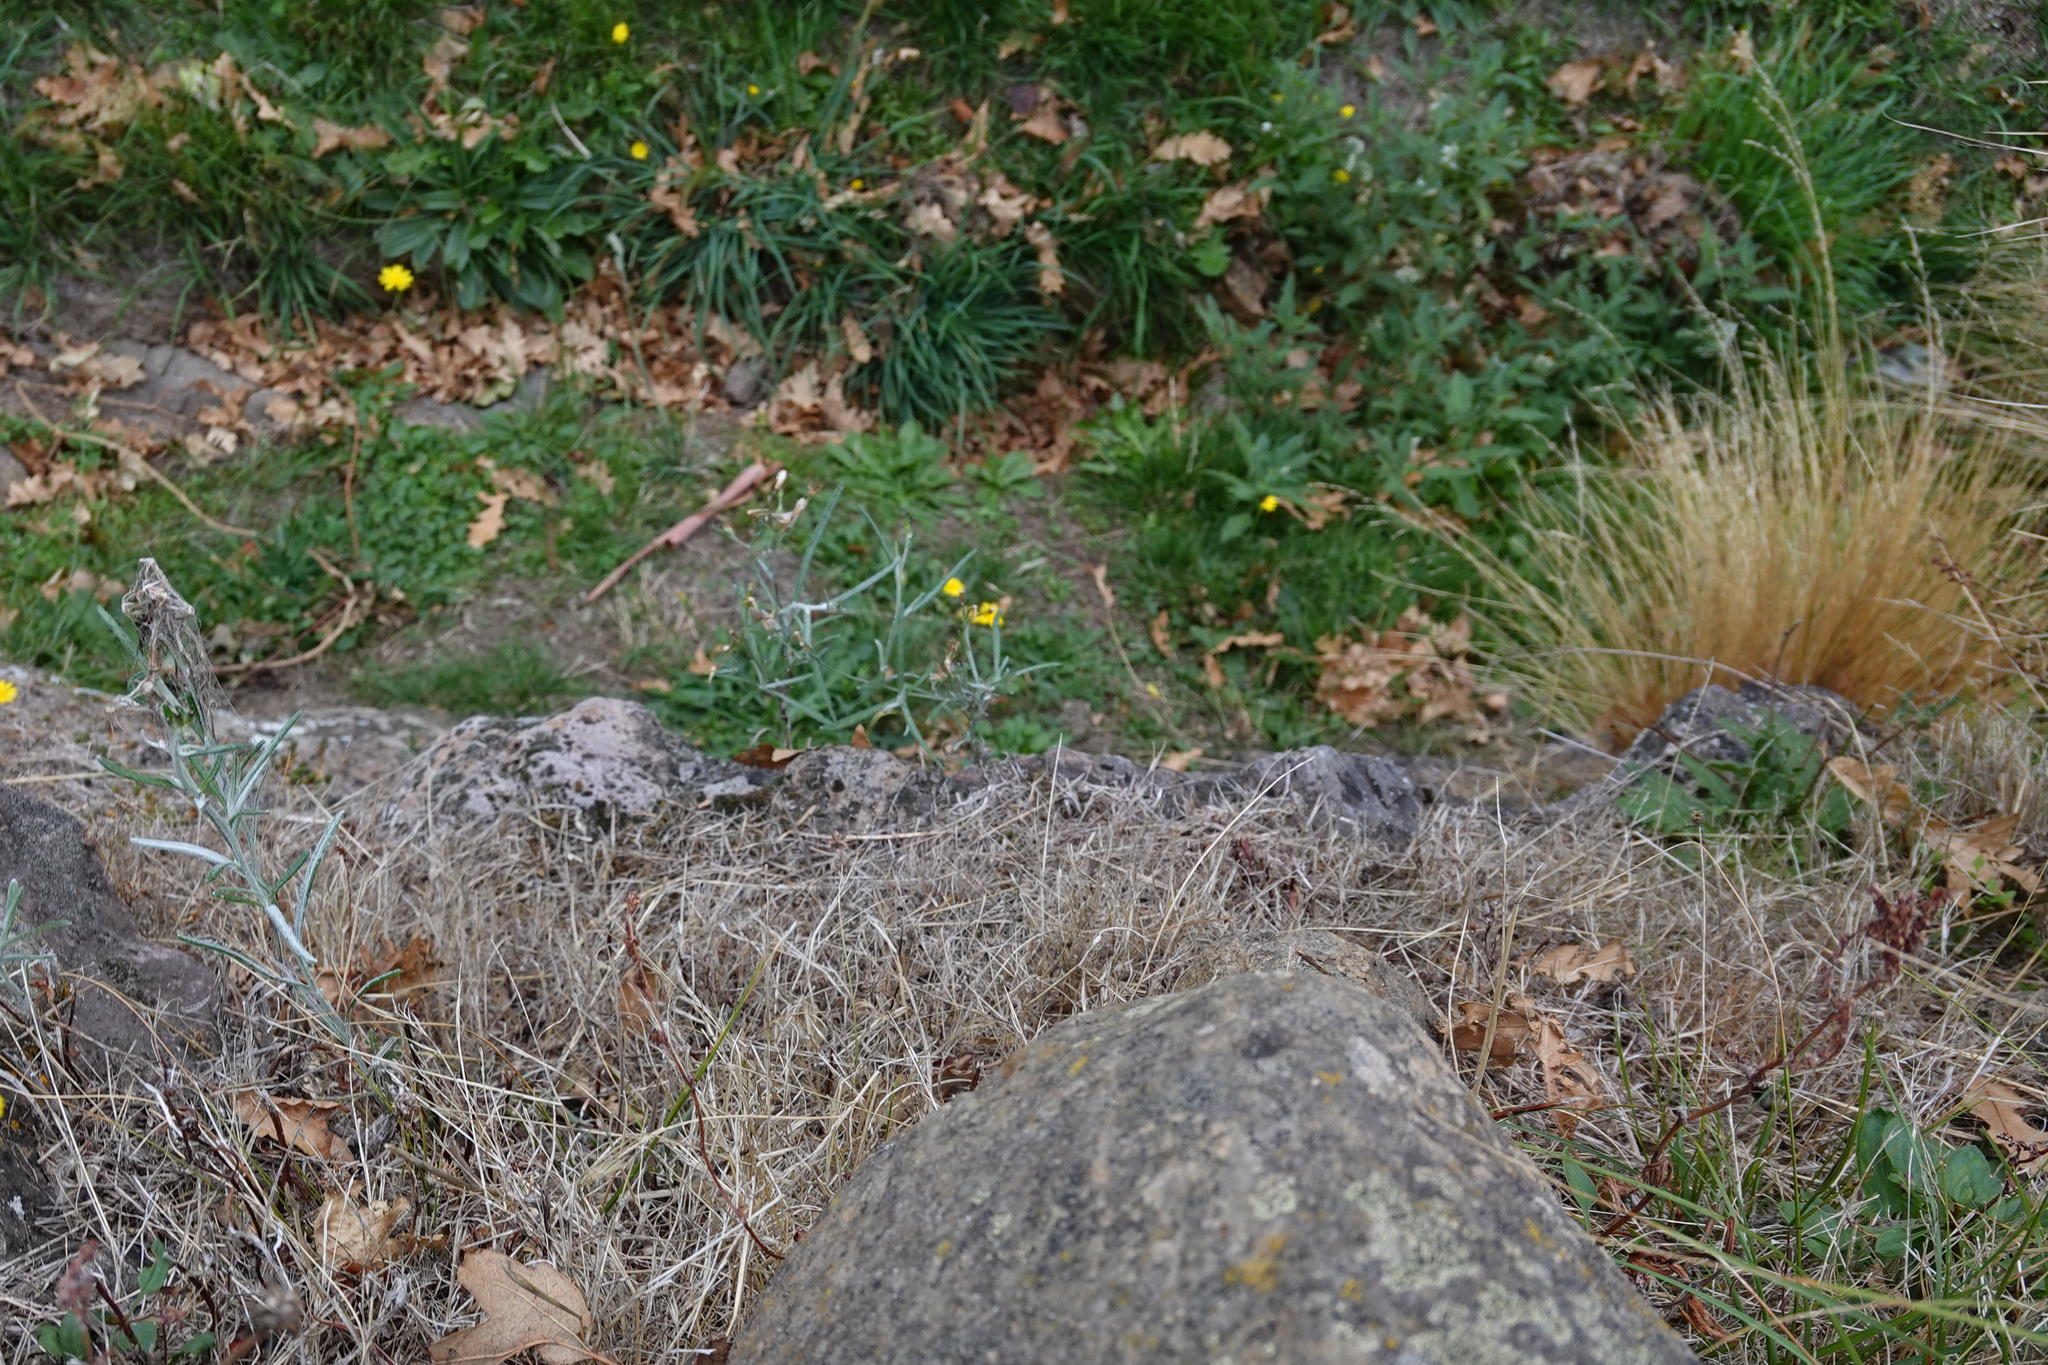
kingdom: Plantae
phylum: Tracheophyta
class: Magnoliopsida
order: Asterales
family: Asteraceae
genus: Senecio
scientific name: Senecio quadridentatus
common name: Cotton fireweed
